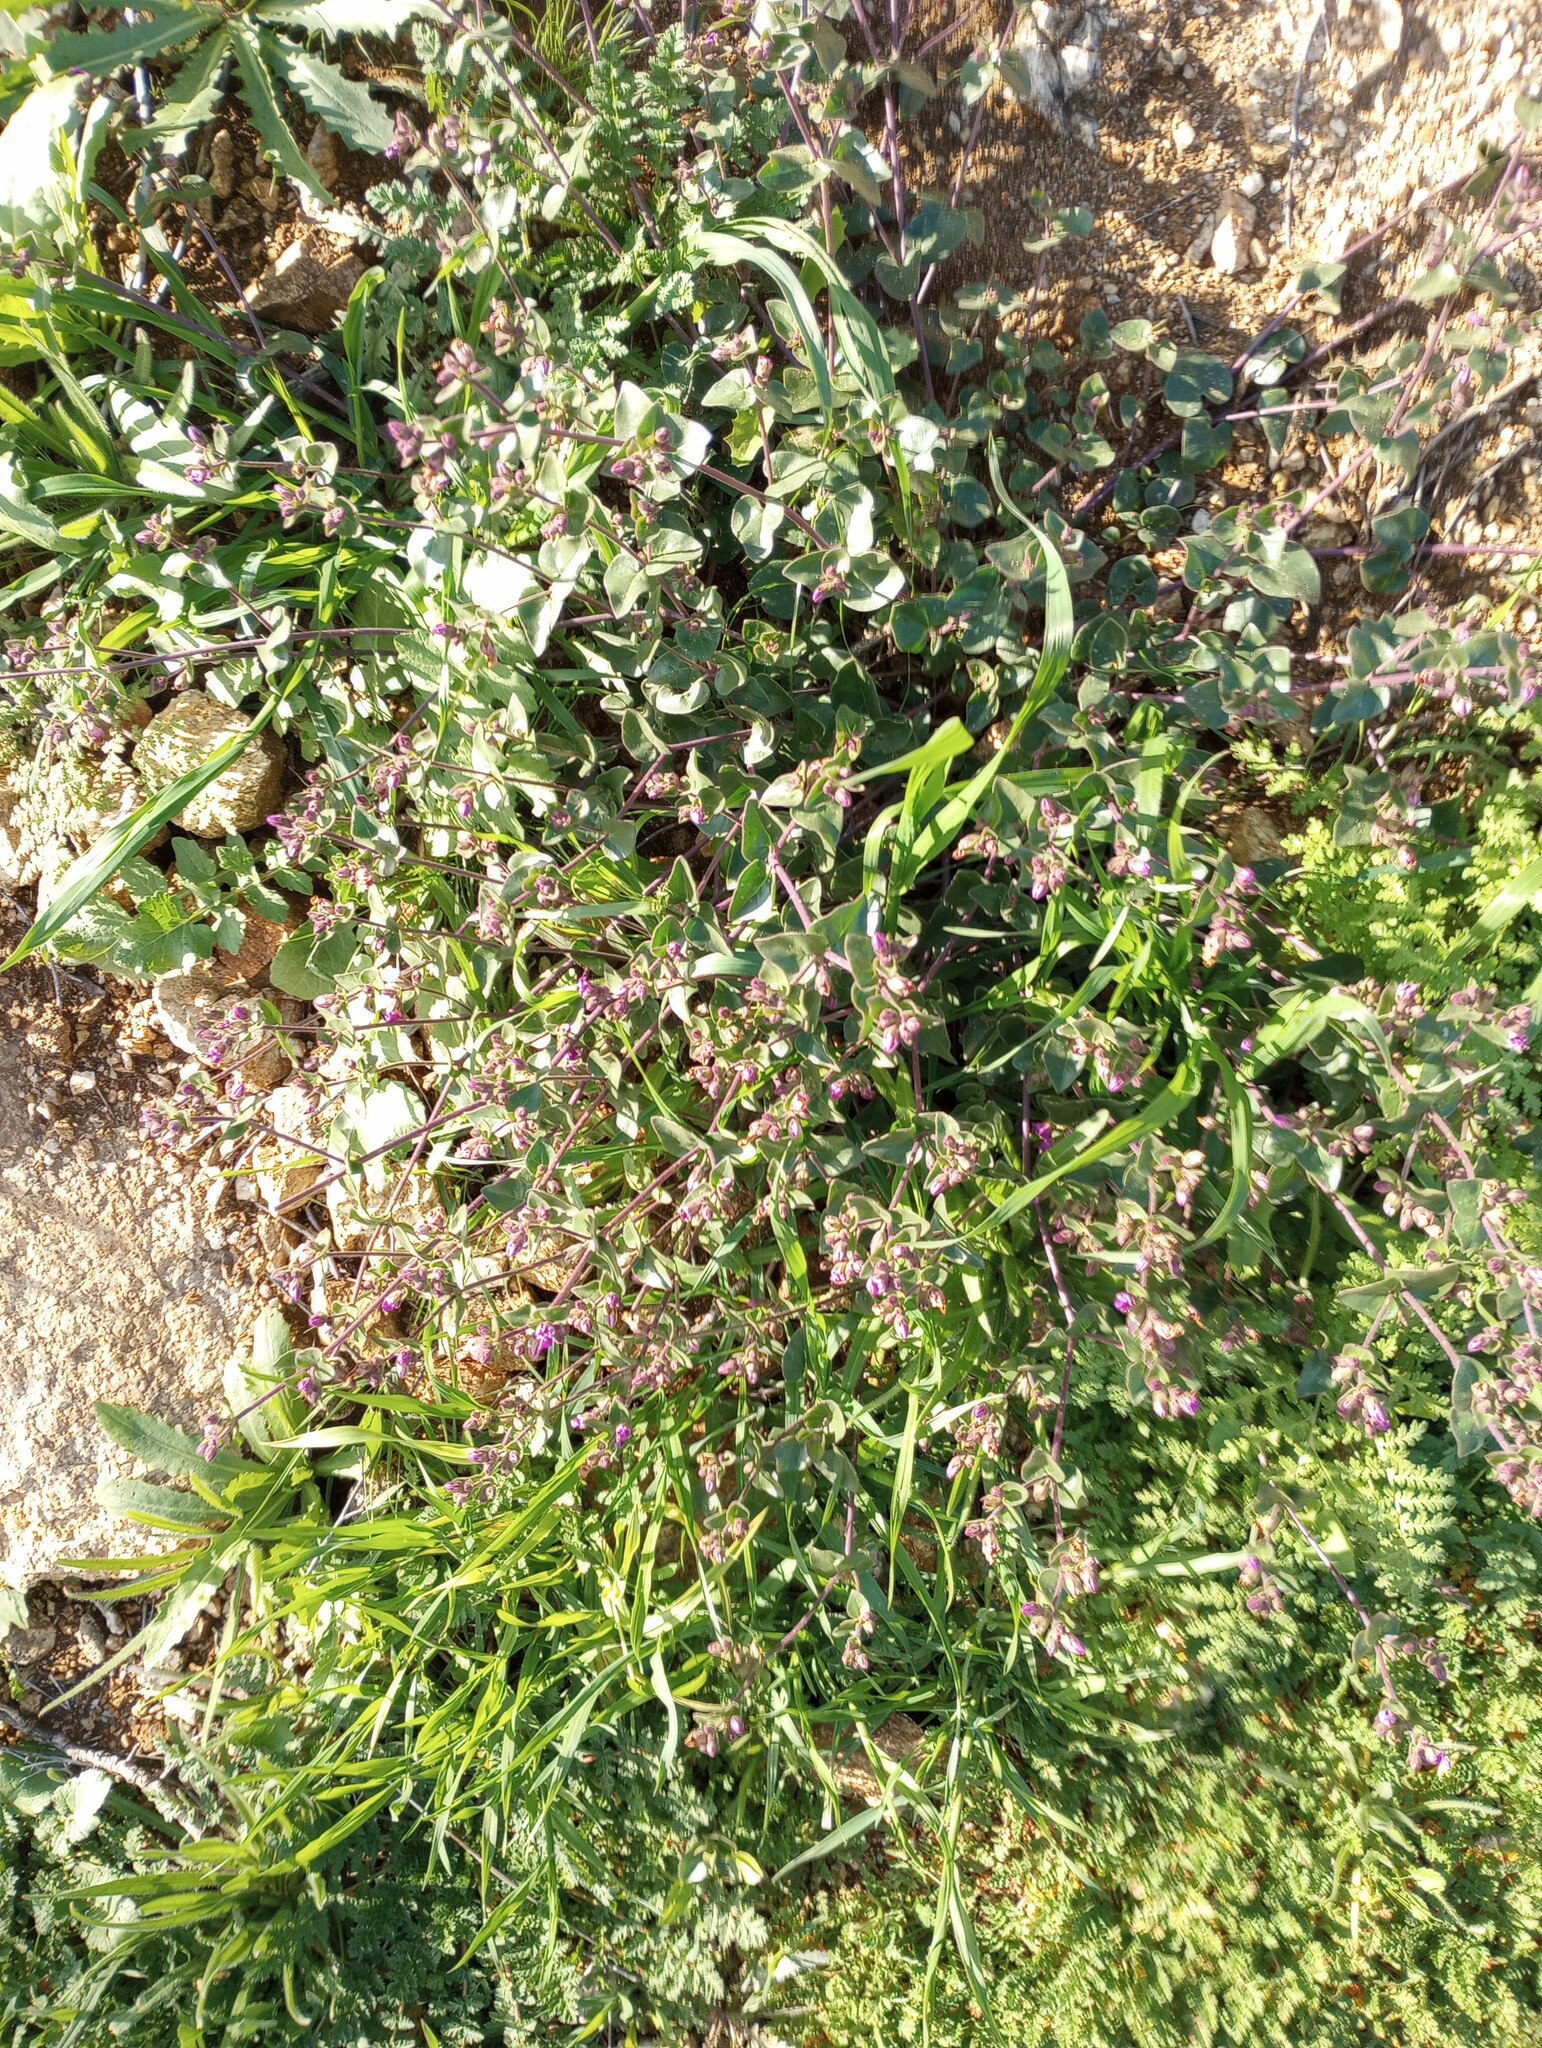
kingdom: Plantae
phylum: Tracheophyta
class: Magnoliopsida
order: Caryophyllales
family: Nyctaginaceae
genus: Mirabilis
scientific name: Mirabilis laevis
